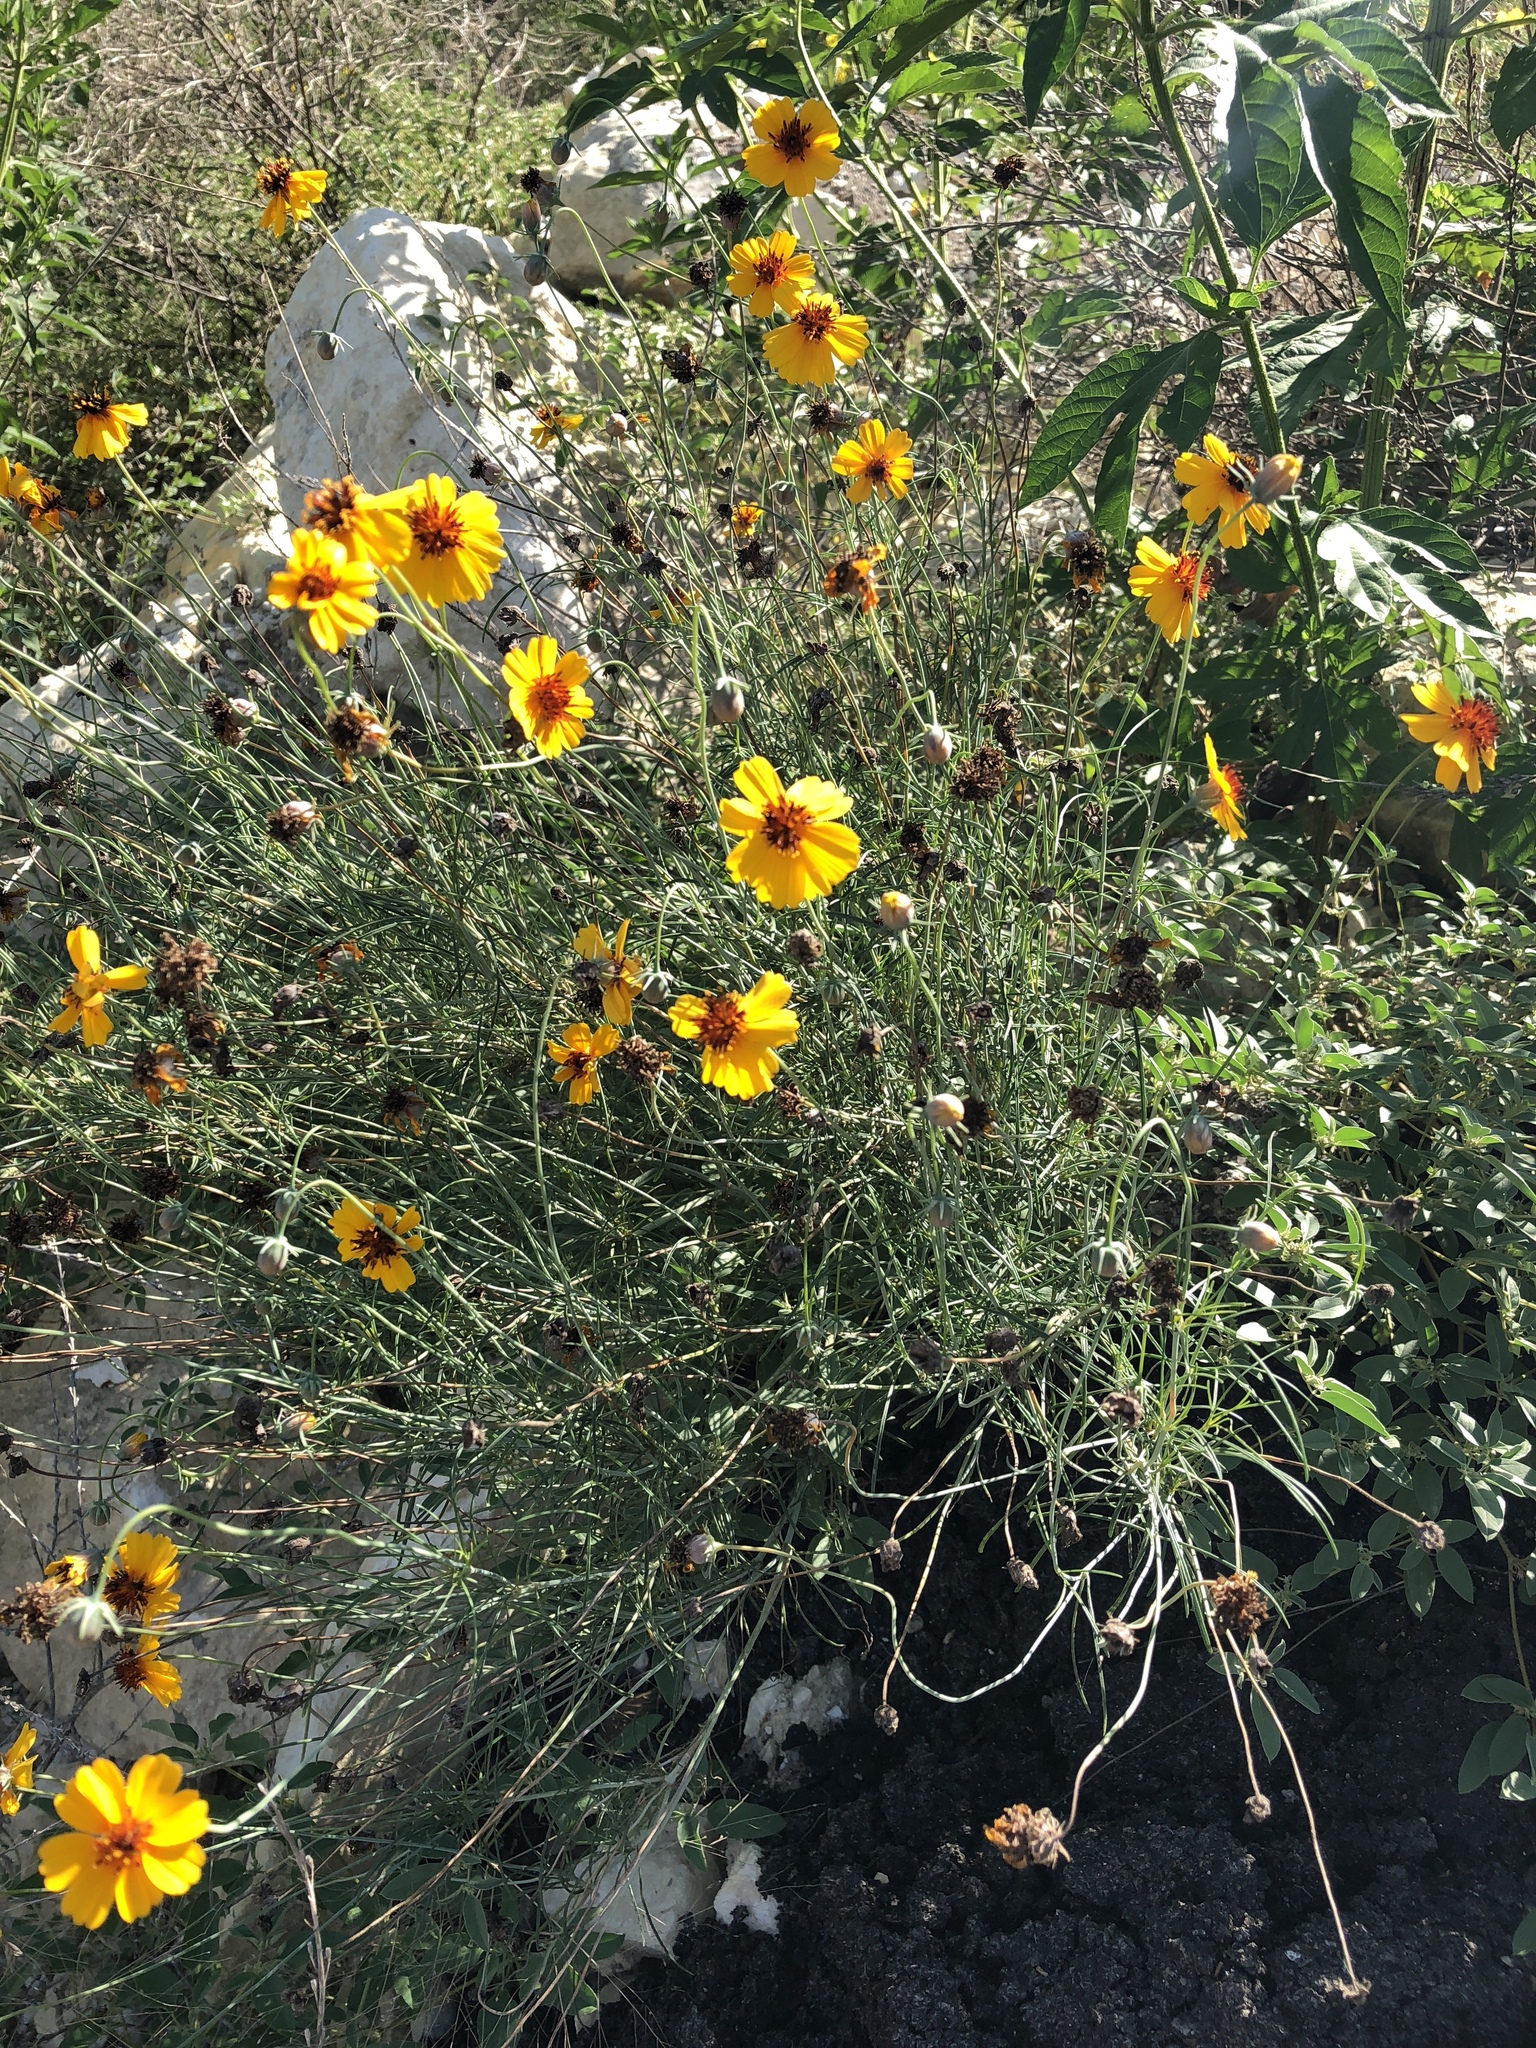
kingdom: Plantae
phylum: Tracheophyta
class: Magnoliopsida
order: Asterales
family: Asteraceae
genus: Thelesperma
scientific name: Thelesperma filifolium
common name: Stiff greenthread
